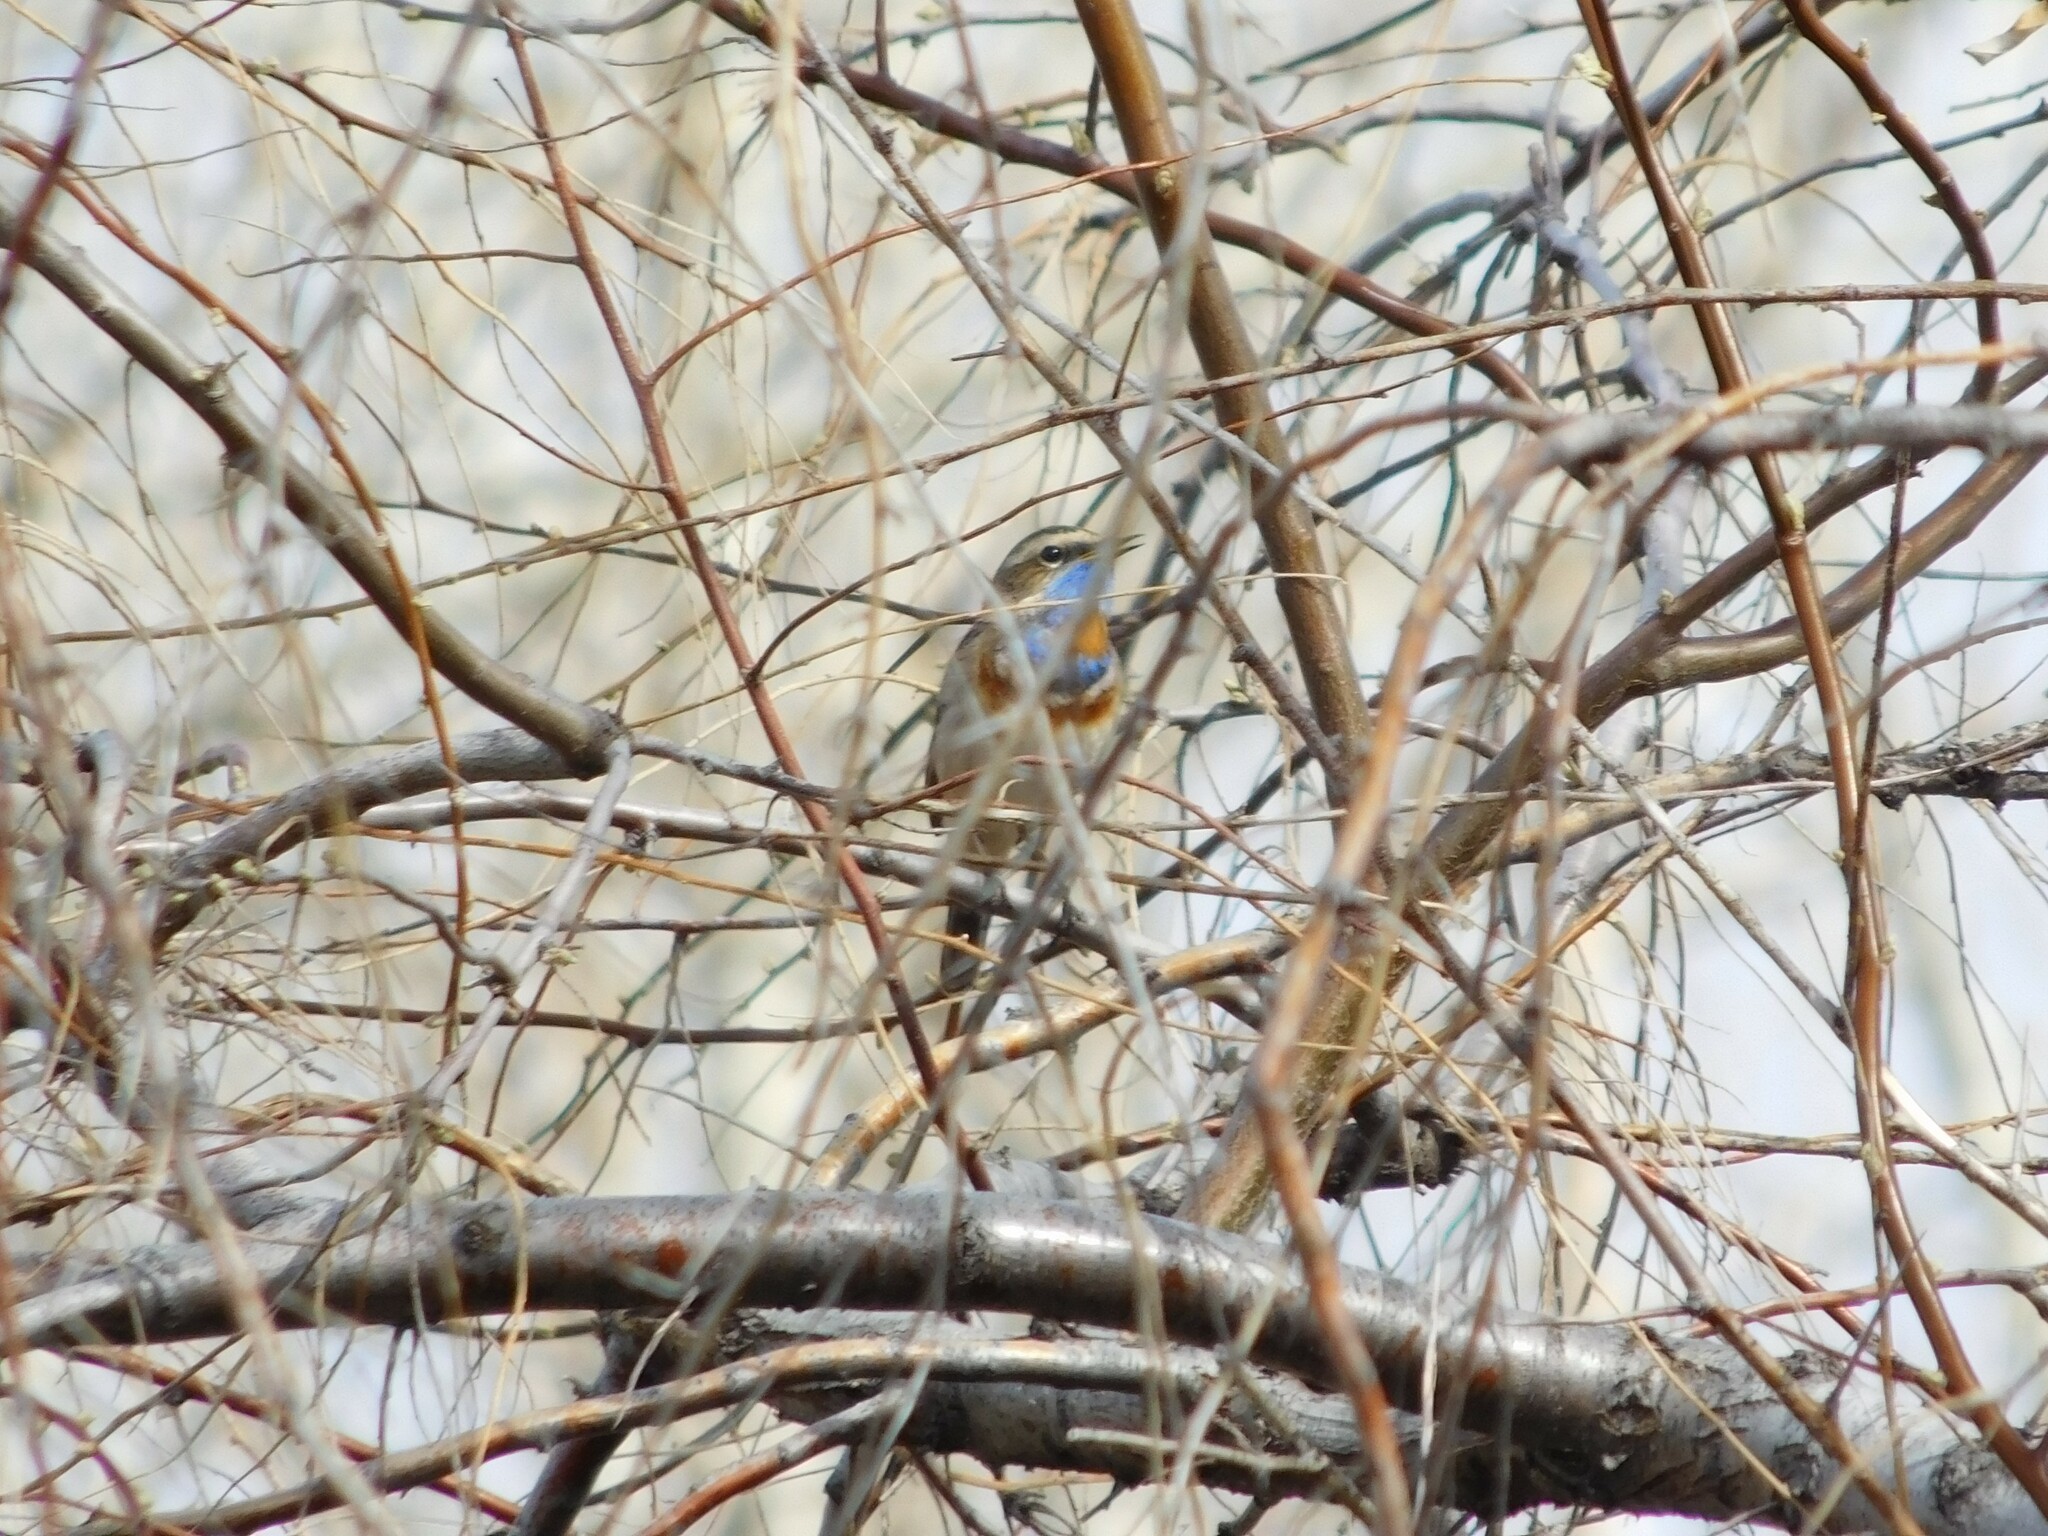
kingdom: Animalia
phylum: Chordata
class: Aves
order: Passeriformes
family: Muscicapidae
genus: Luscinia
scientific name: Luscinia svecica
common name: Bluethroat
